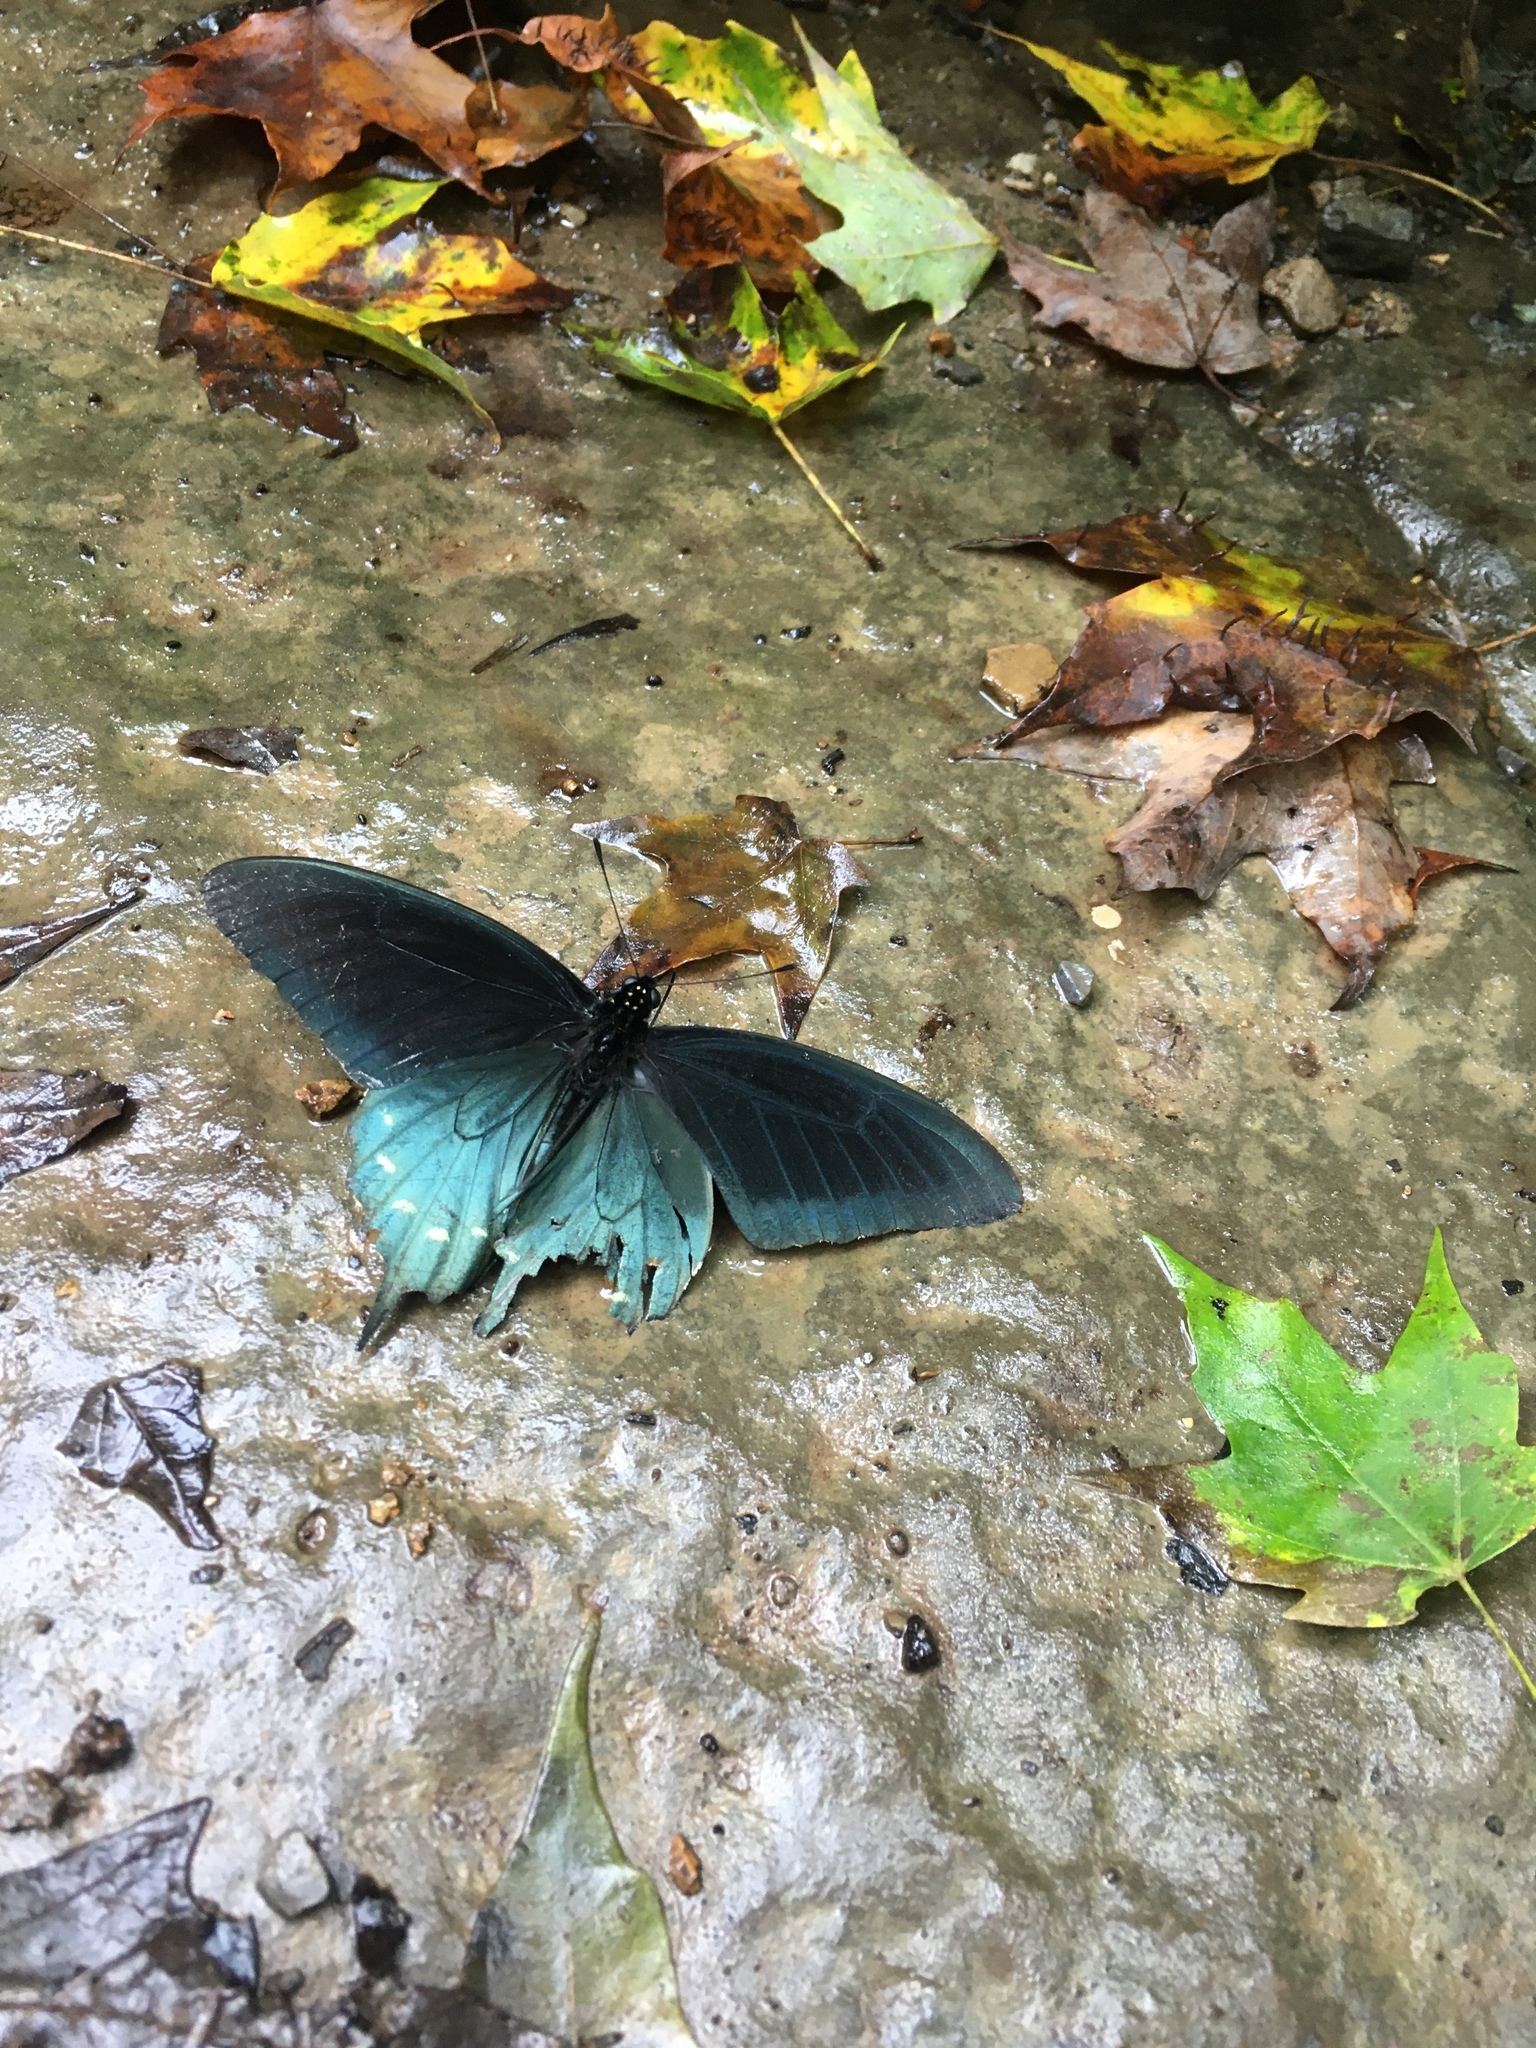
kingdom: Animalia
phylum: Arthropoda
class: Insecta
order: Lepidoptera
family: Papilionidae
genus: Battus
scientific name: Battus philenor
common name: Pipevine swallowtail
